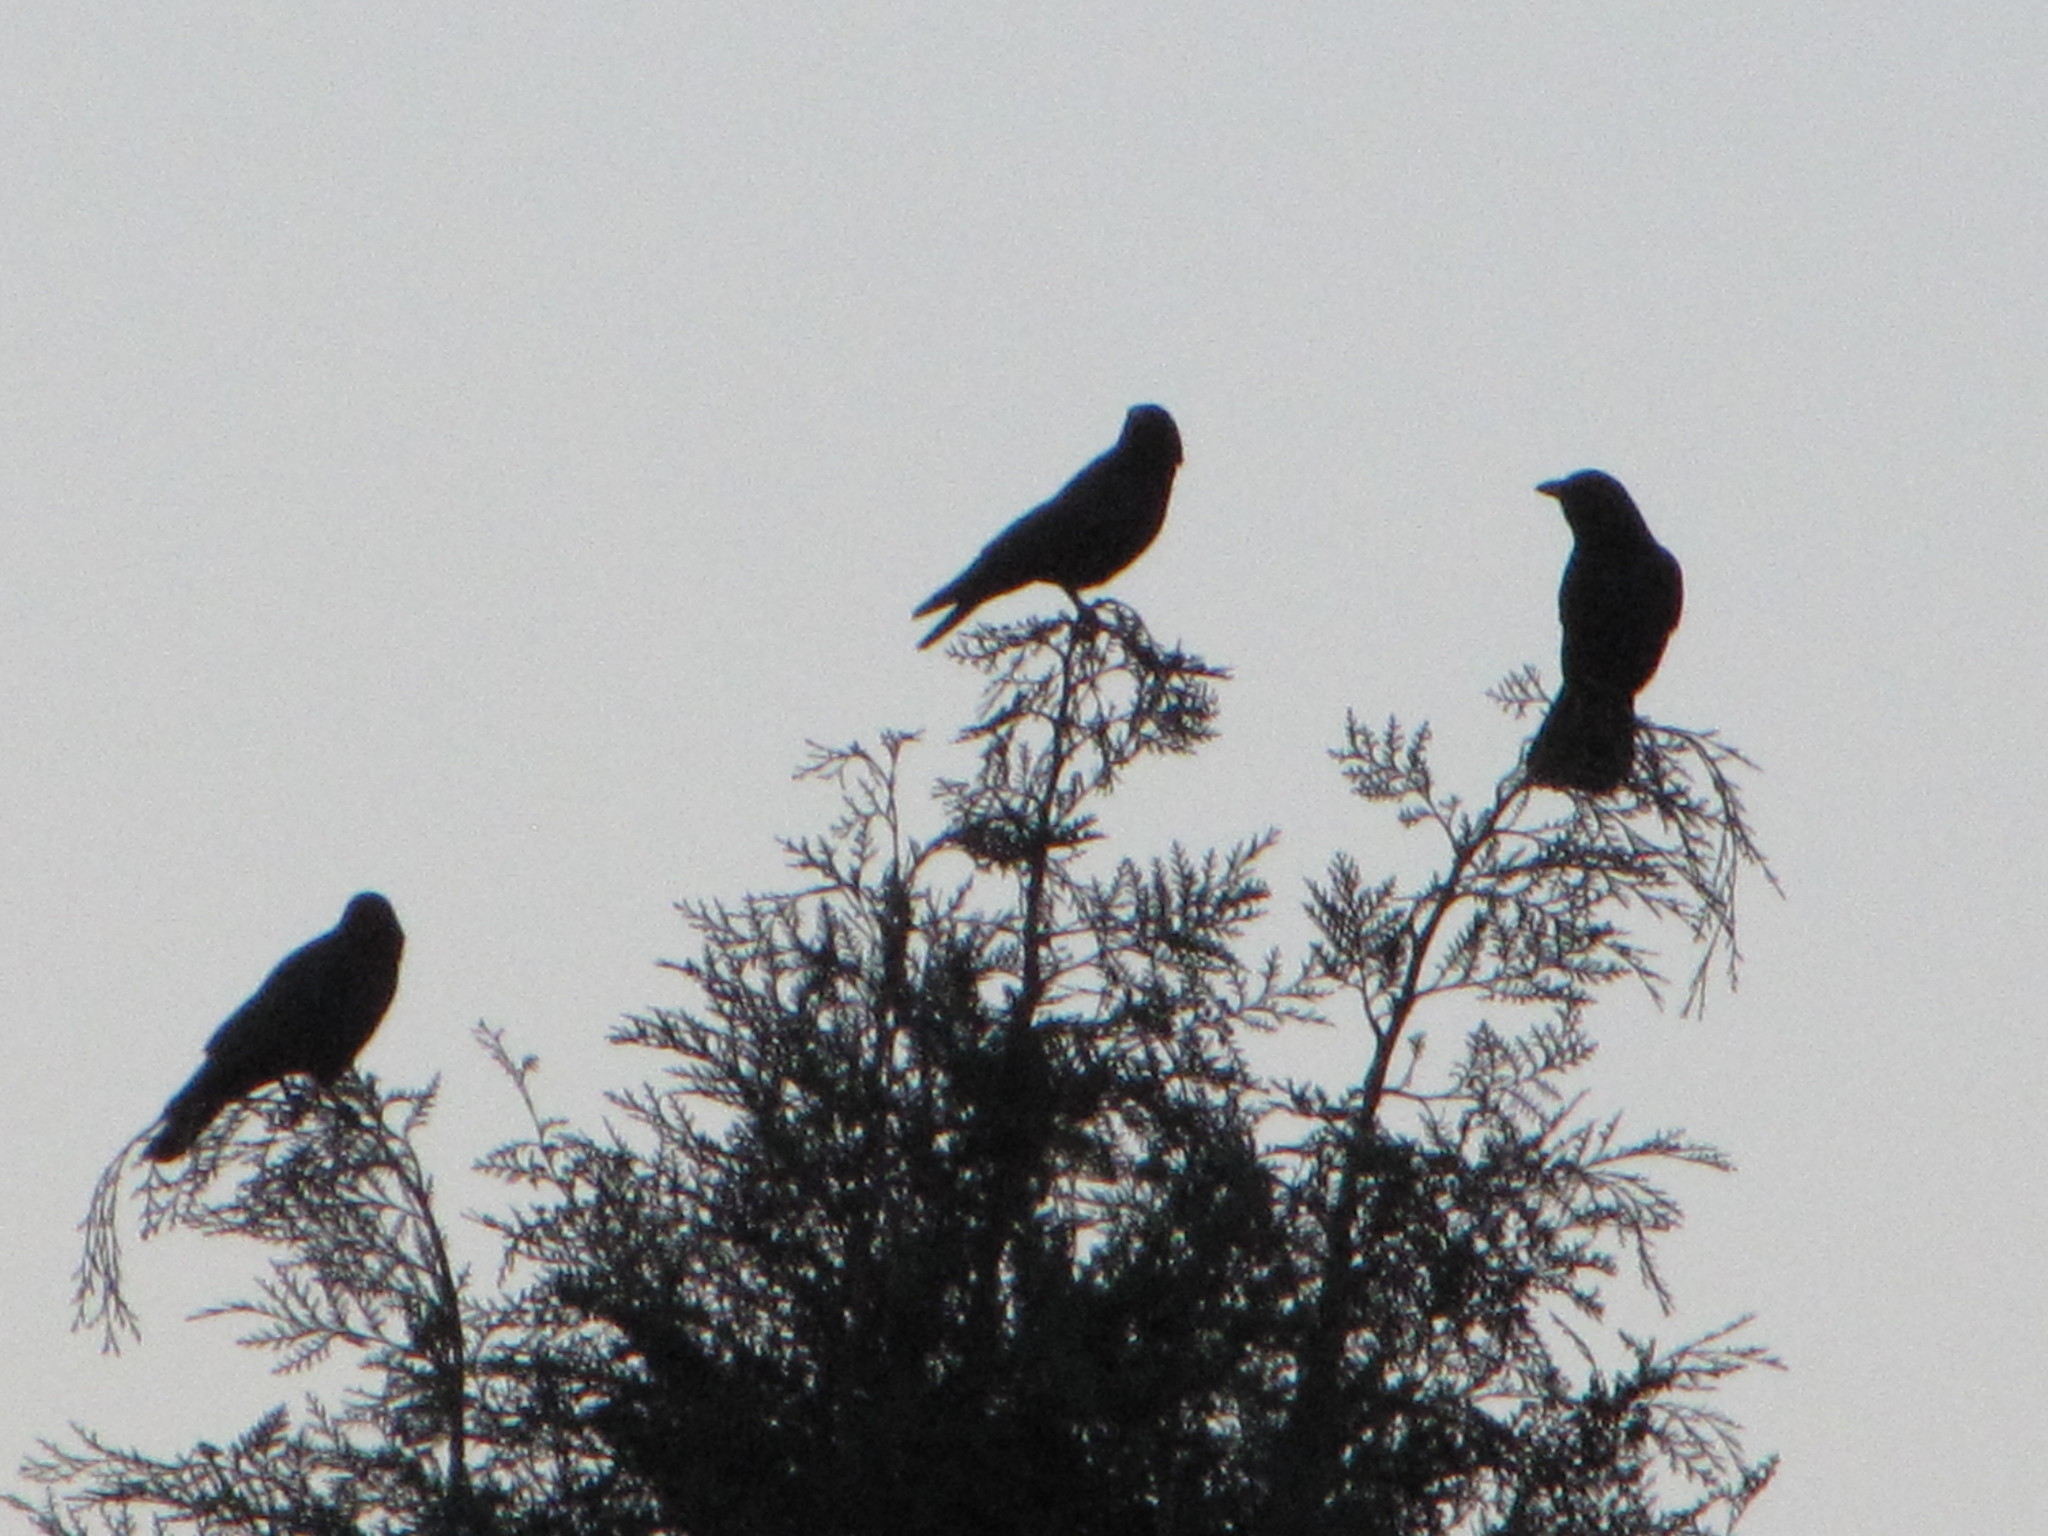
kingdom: Animalia
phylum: Chordata
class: Aves
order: Passeriformes
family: Corvidae
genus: Corvus
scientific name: Corvus brachyrhynchos
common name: American crow
